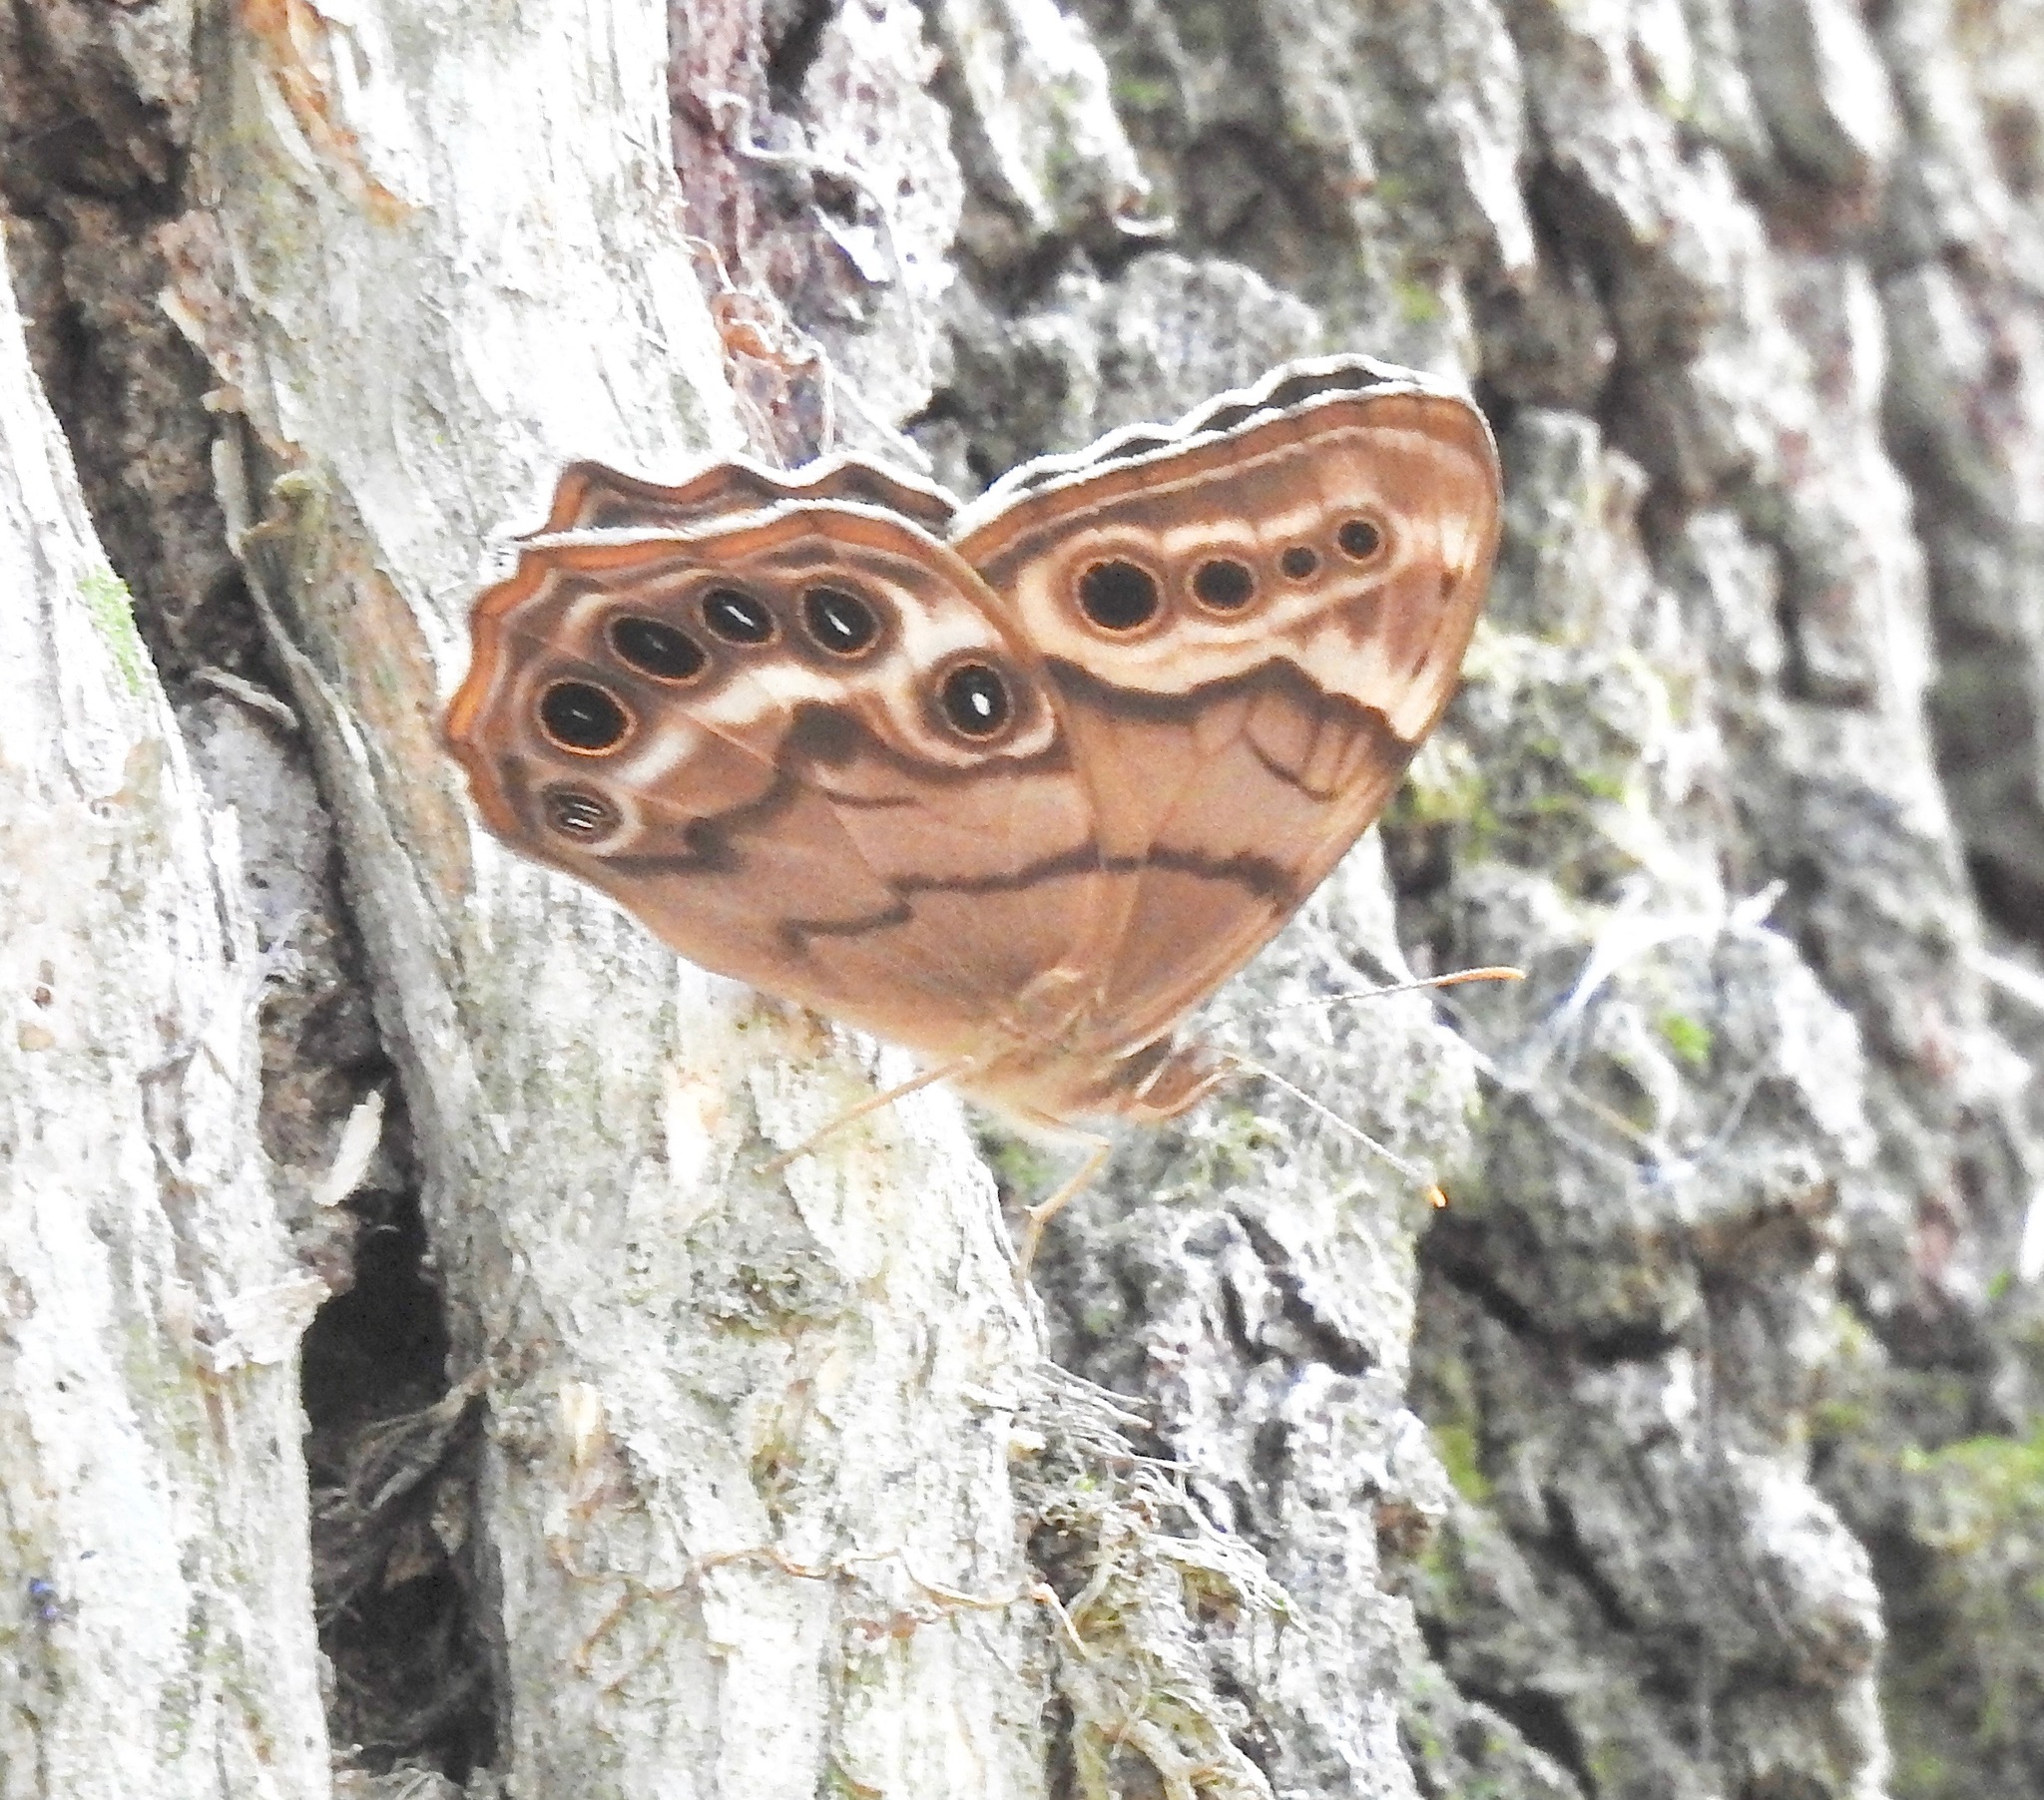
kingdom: Animalia
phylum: Arthropoda
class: Insecta
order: Lepidoptera
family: Nymphalidae
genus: Enodia
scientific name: Enodia portlandia
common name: Southern pearly-eye
